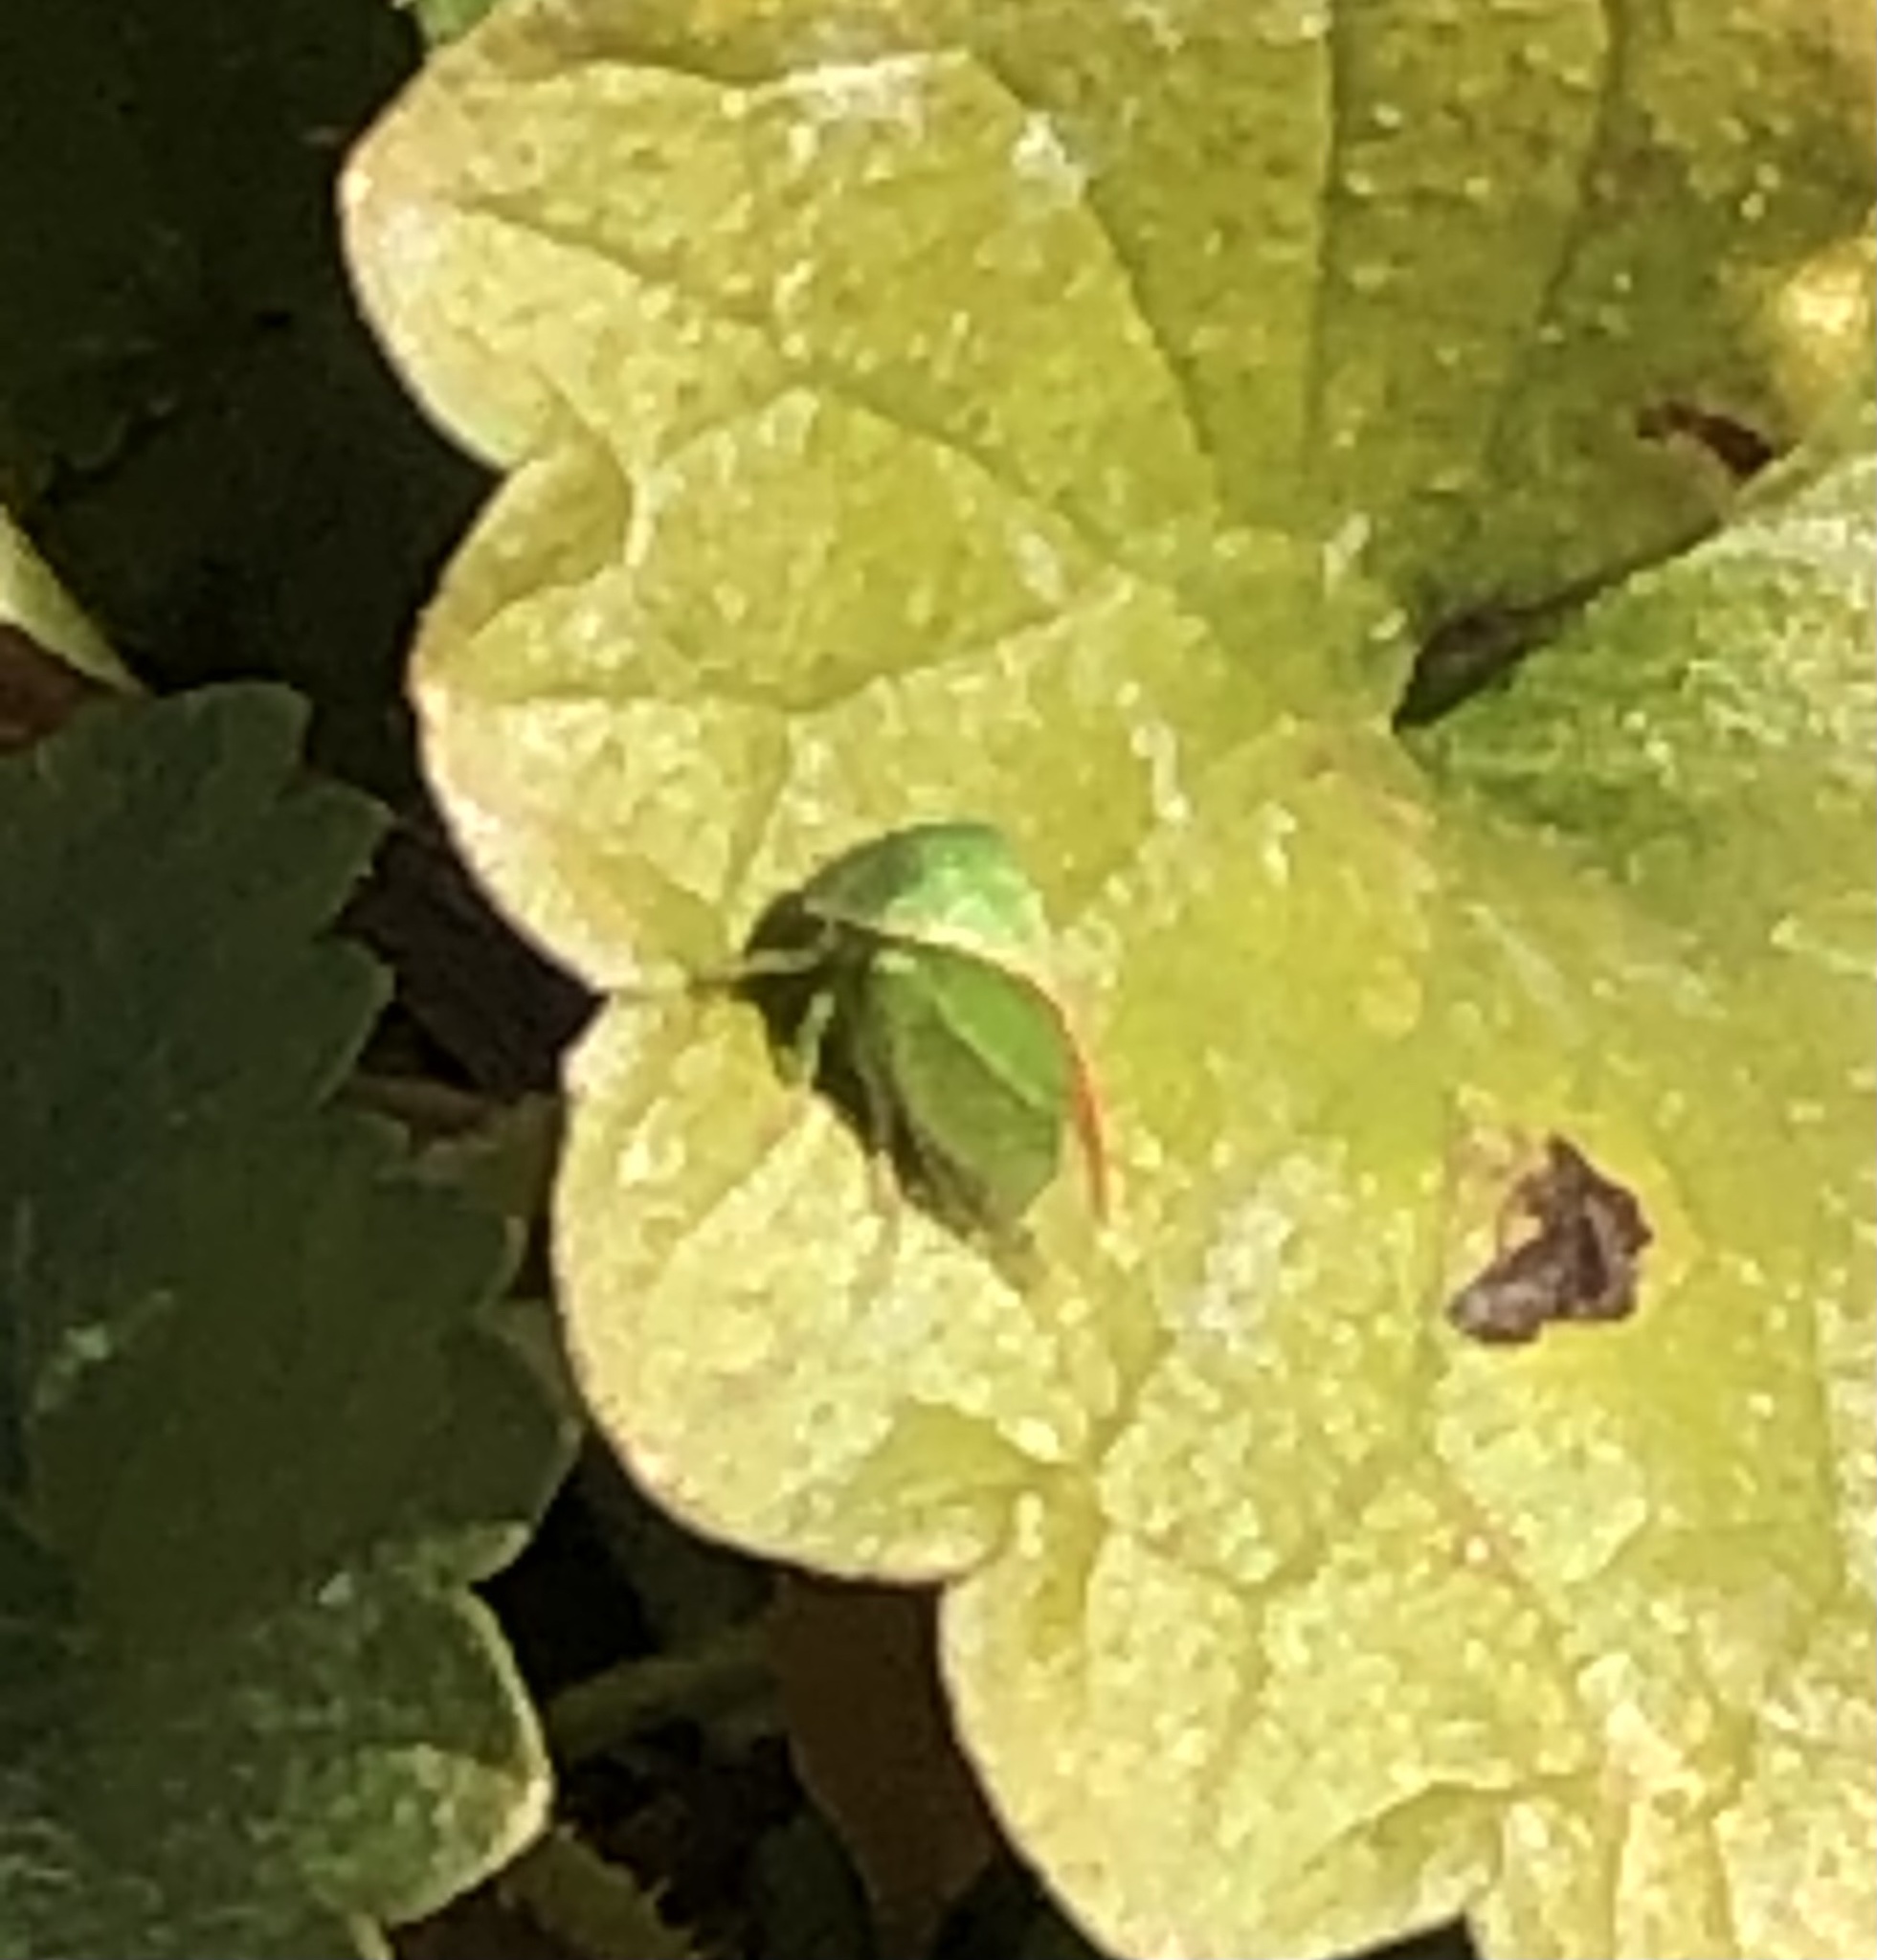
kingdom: Animalia
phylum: Arthropoda
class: Insecta
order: Hemiptera
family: Membracidae
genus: Spissistilus
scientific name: Spissistilus festina
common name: Membracid bug
